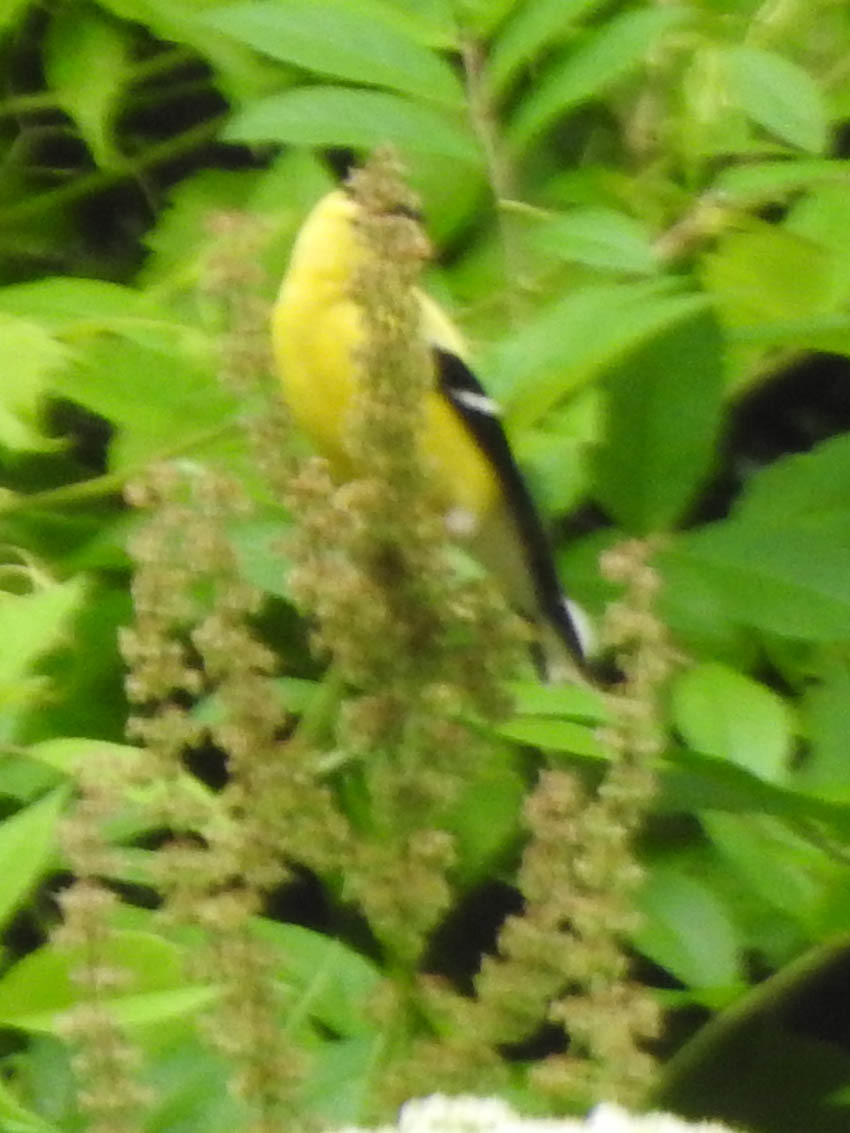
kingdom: Animalia
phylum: Chordata
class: Aves
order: Passeriformes
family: Fringillidae
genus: Spinus
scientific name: Spinus tristis
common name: American goldfinch
